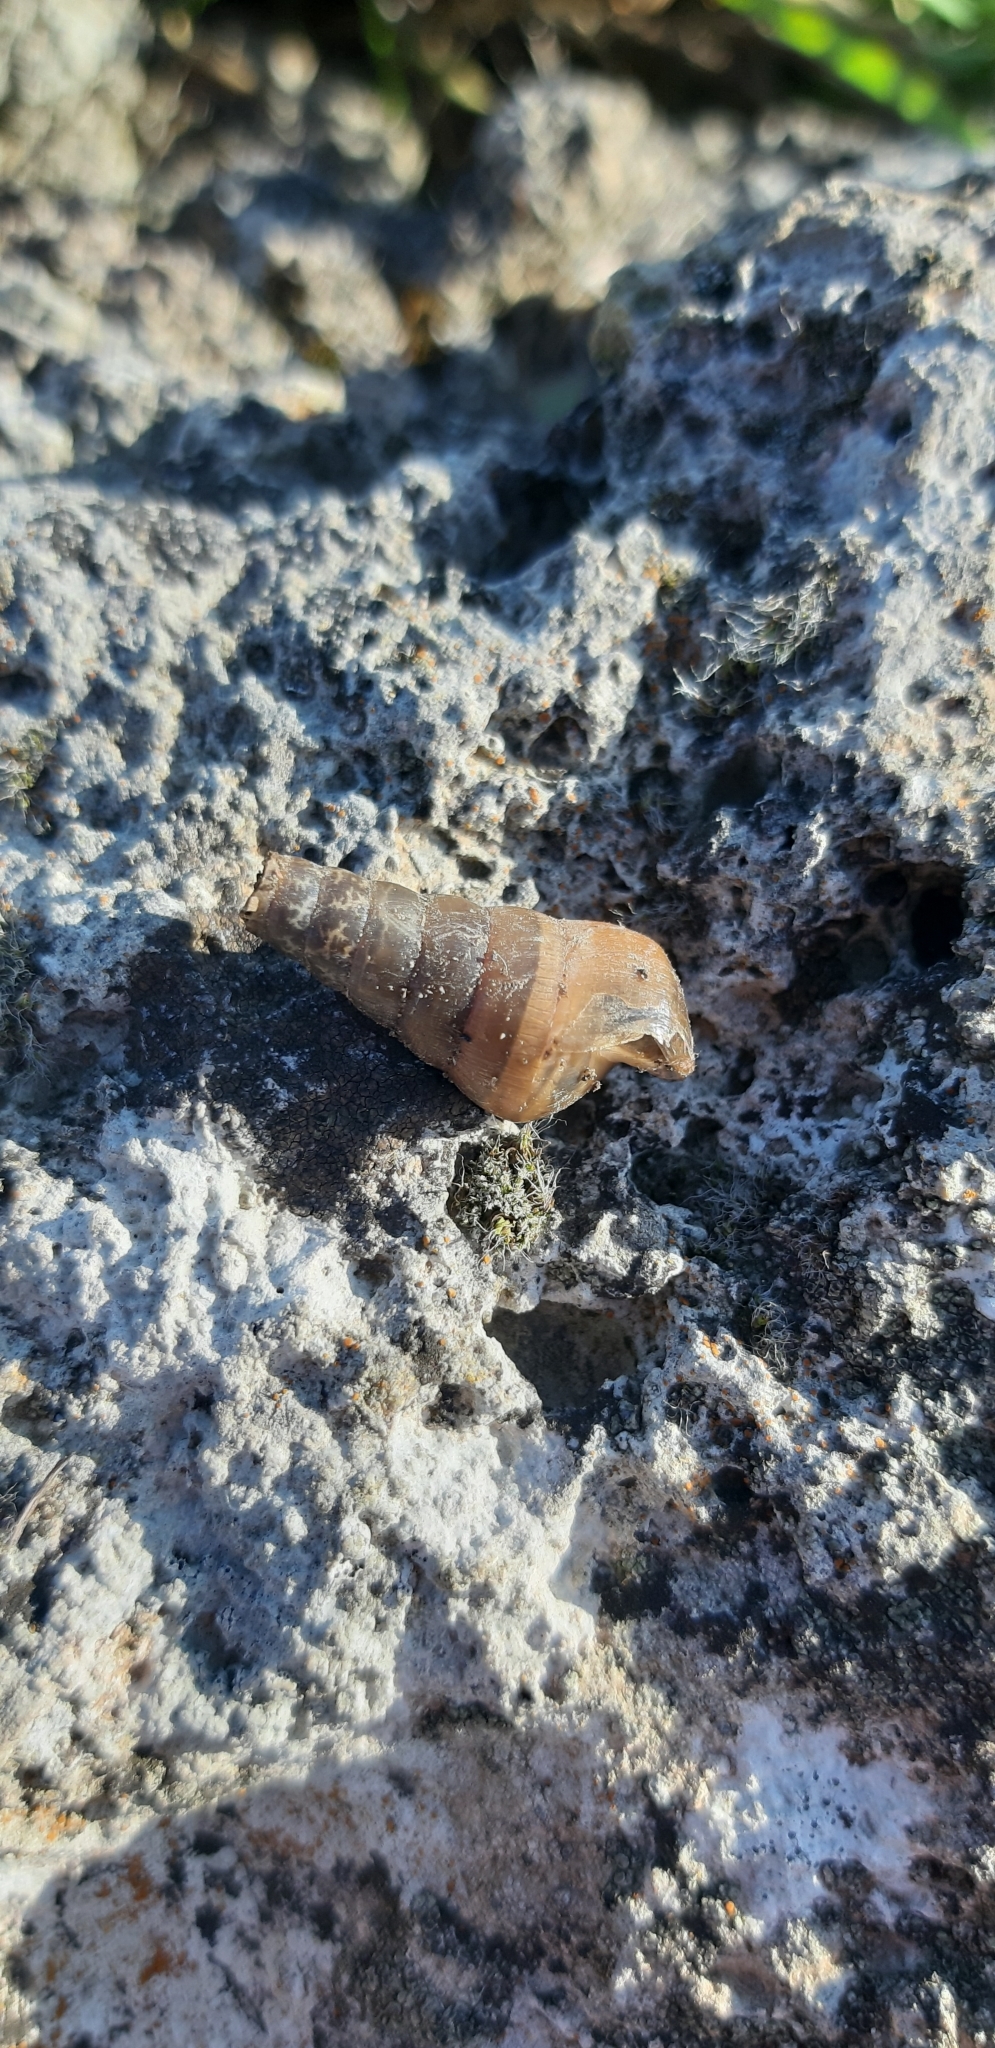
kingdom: Animalia
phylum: Mollusca
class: Gastropoda
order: Stylommatophora
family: Achatinidae
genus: Rumina
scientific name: Rumina decollata
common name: Decollate snail
